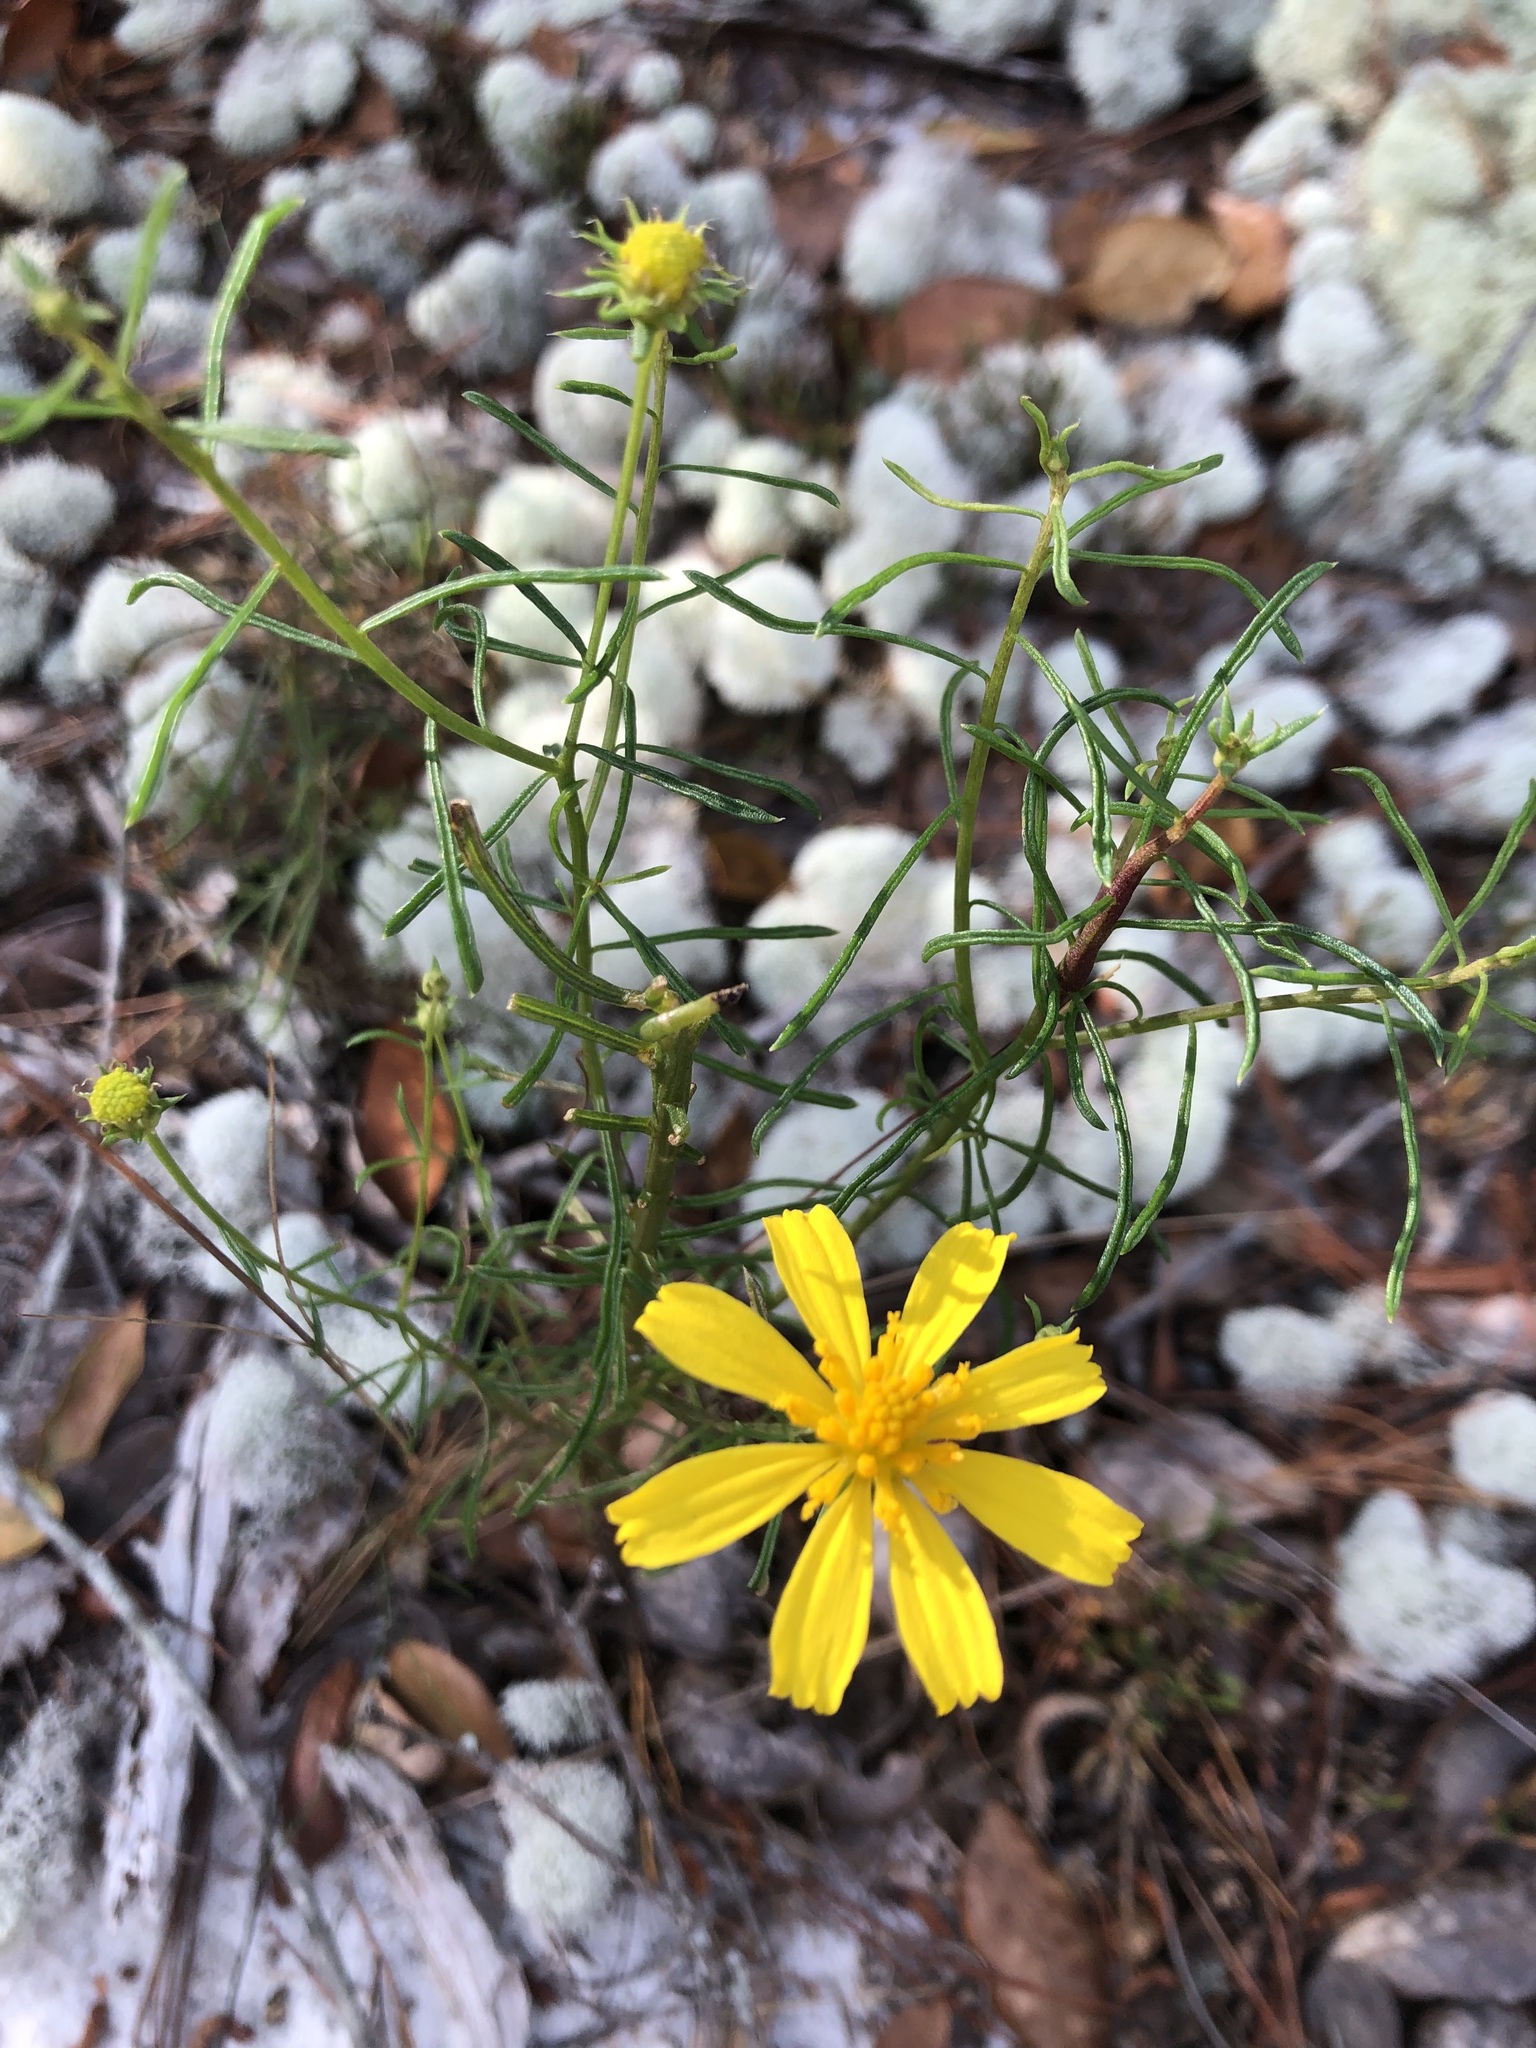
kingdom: Plantae
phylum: Tracheophyta
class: Magnoliopsida
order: Asterales
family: Asteraceae
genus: Balduina
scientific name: Balduina angustifolia
